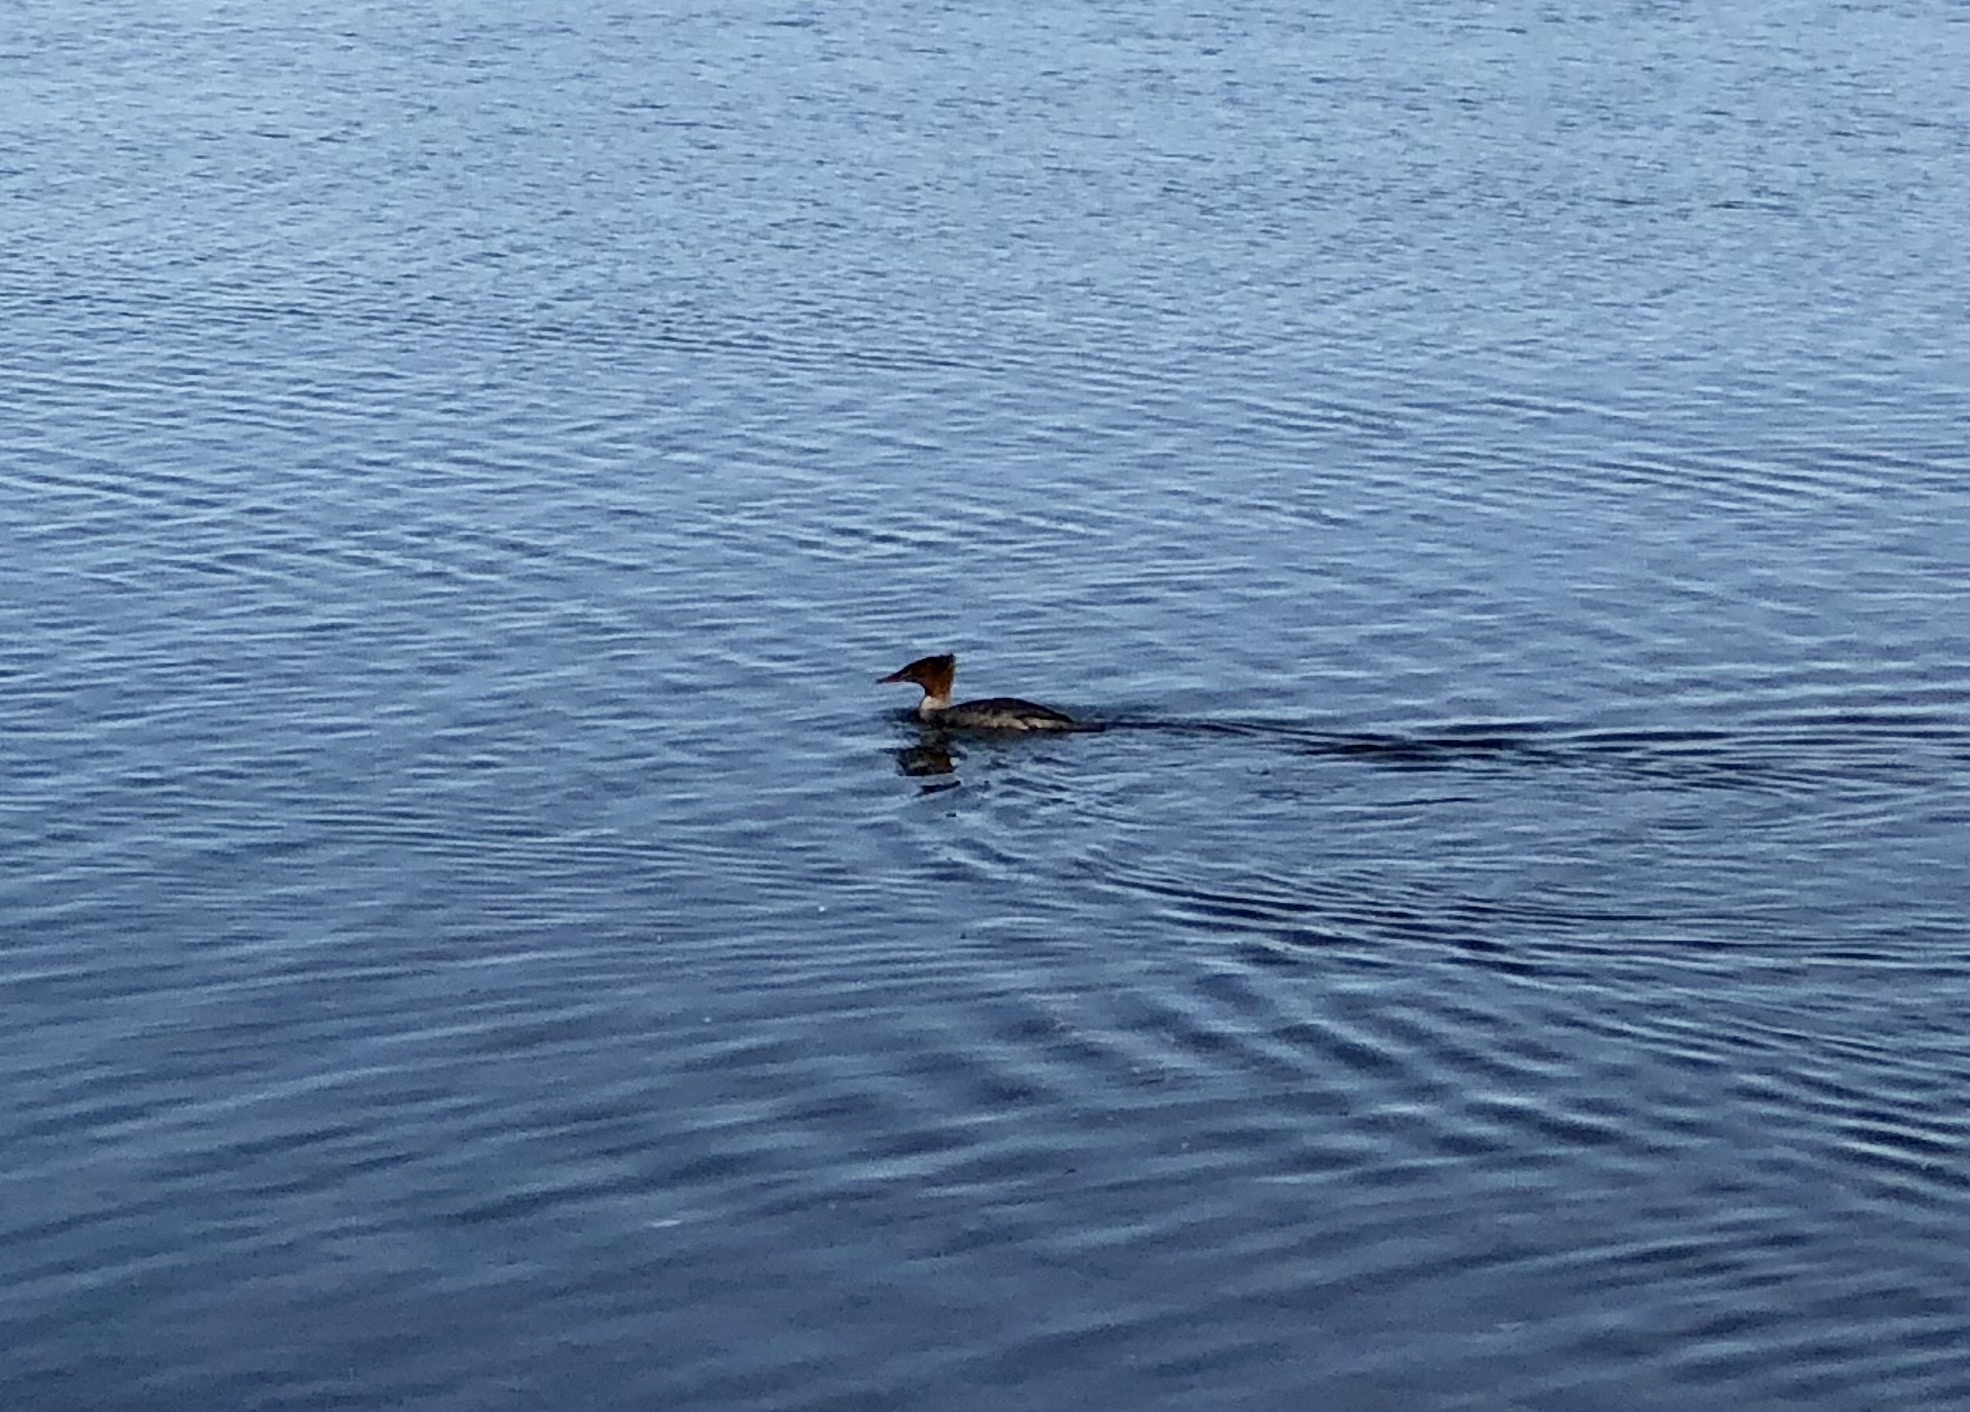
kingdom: Animalia
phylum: Chordata
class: Aves
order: Anseriformes
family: Anatidae
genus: Mergus
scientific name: Mergus serrator
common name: Red-breasted merganser
